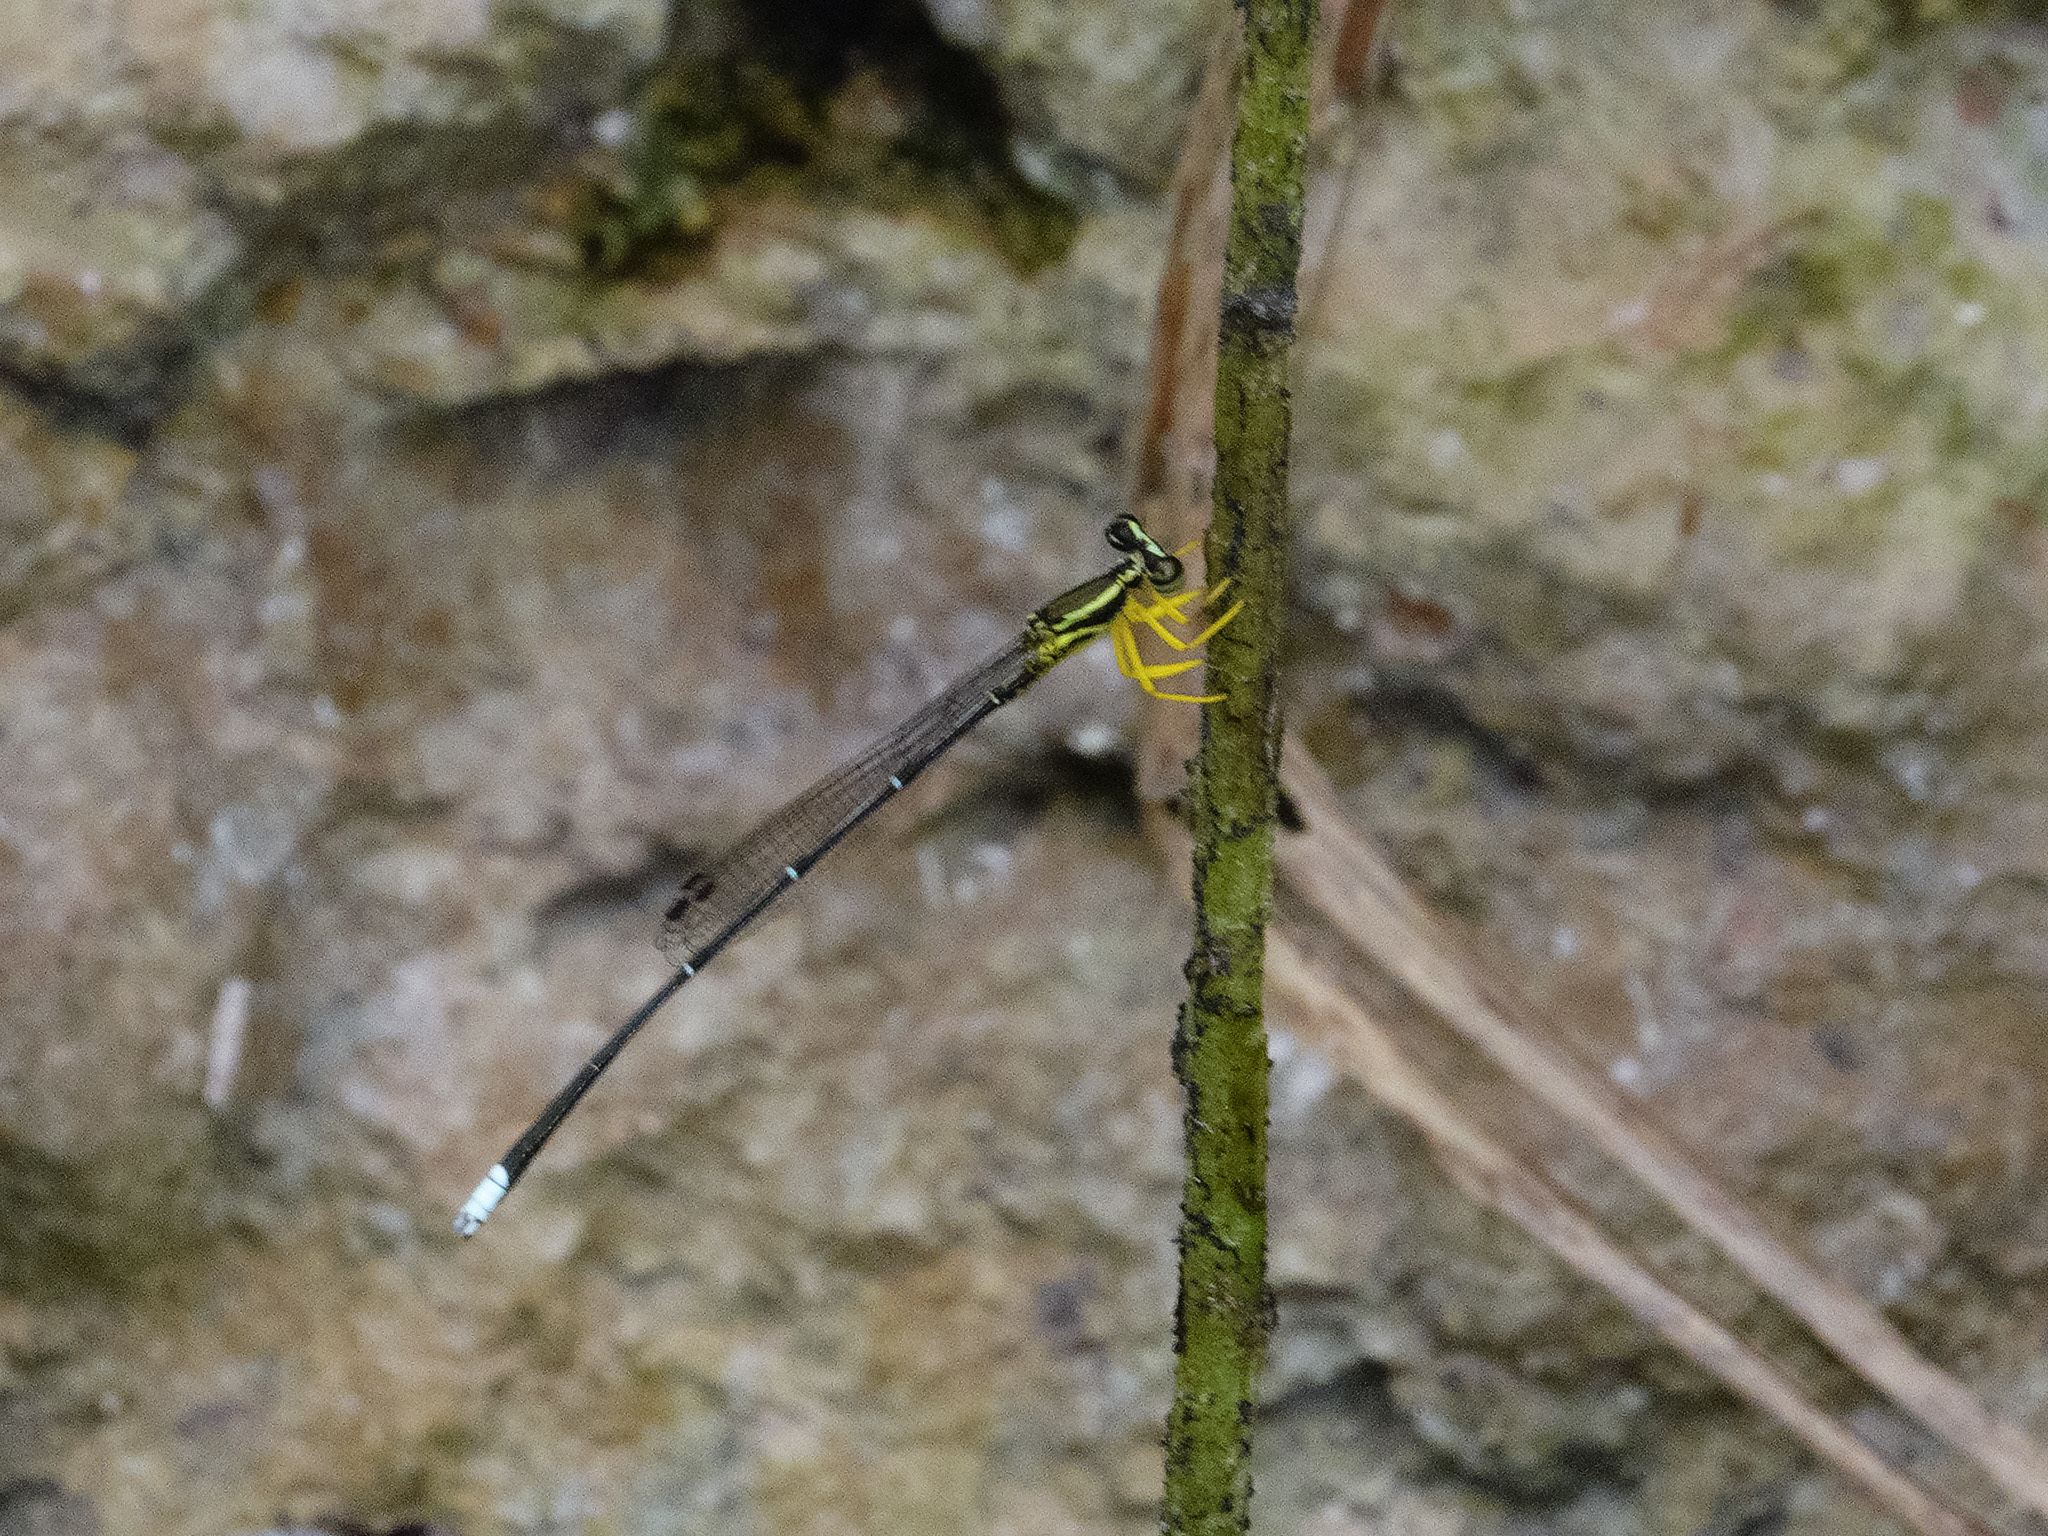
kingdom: Animalia
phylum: Arthropoda
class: Insecta
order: Odonata
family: Platycnemididae
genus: Copera
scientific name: Copera marginipes
